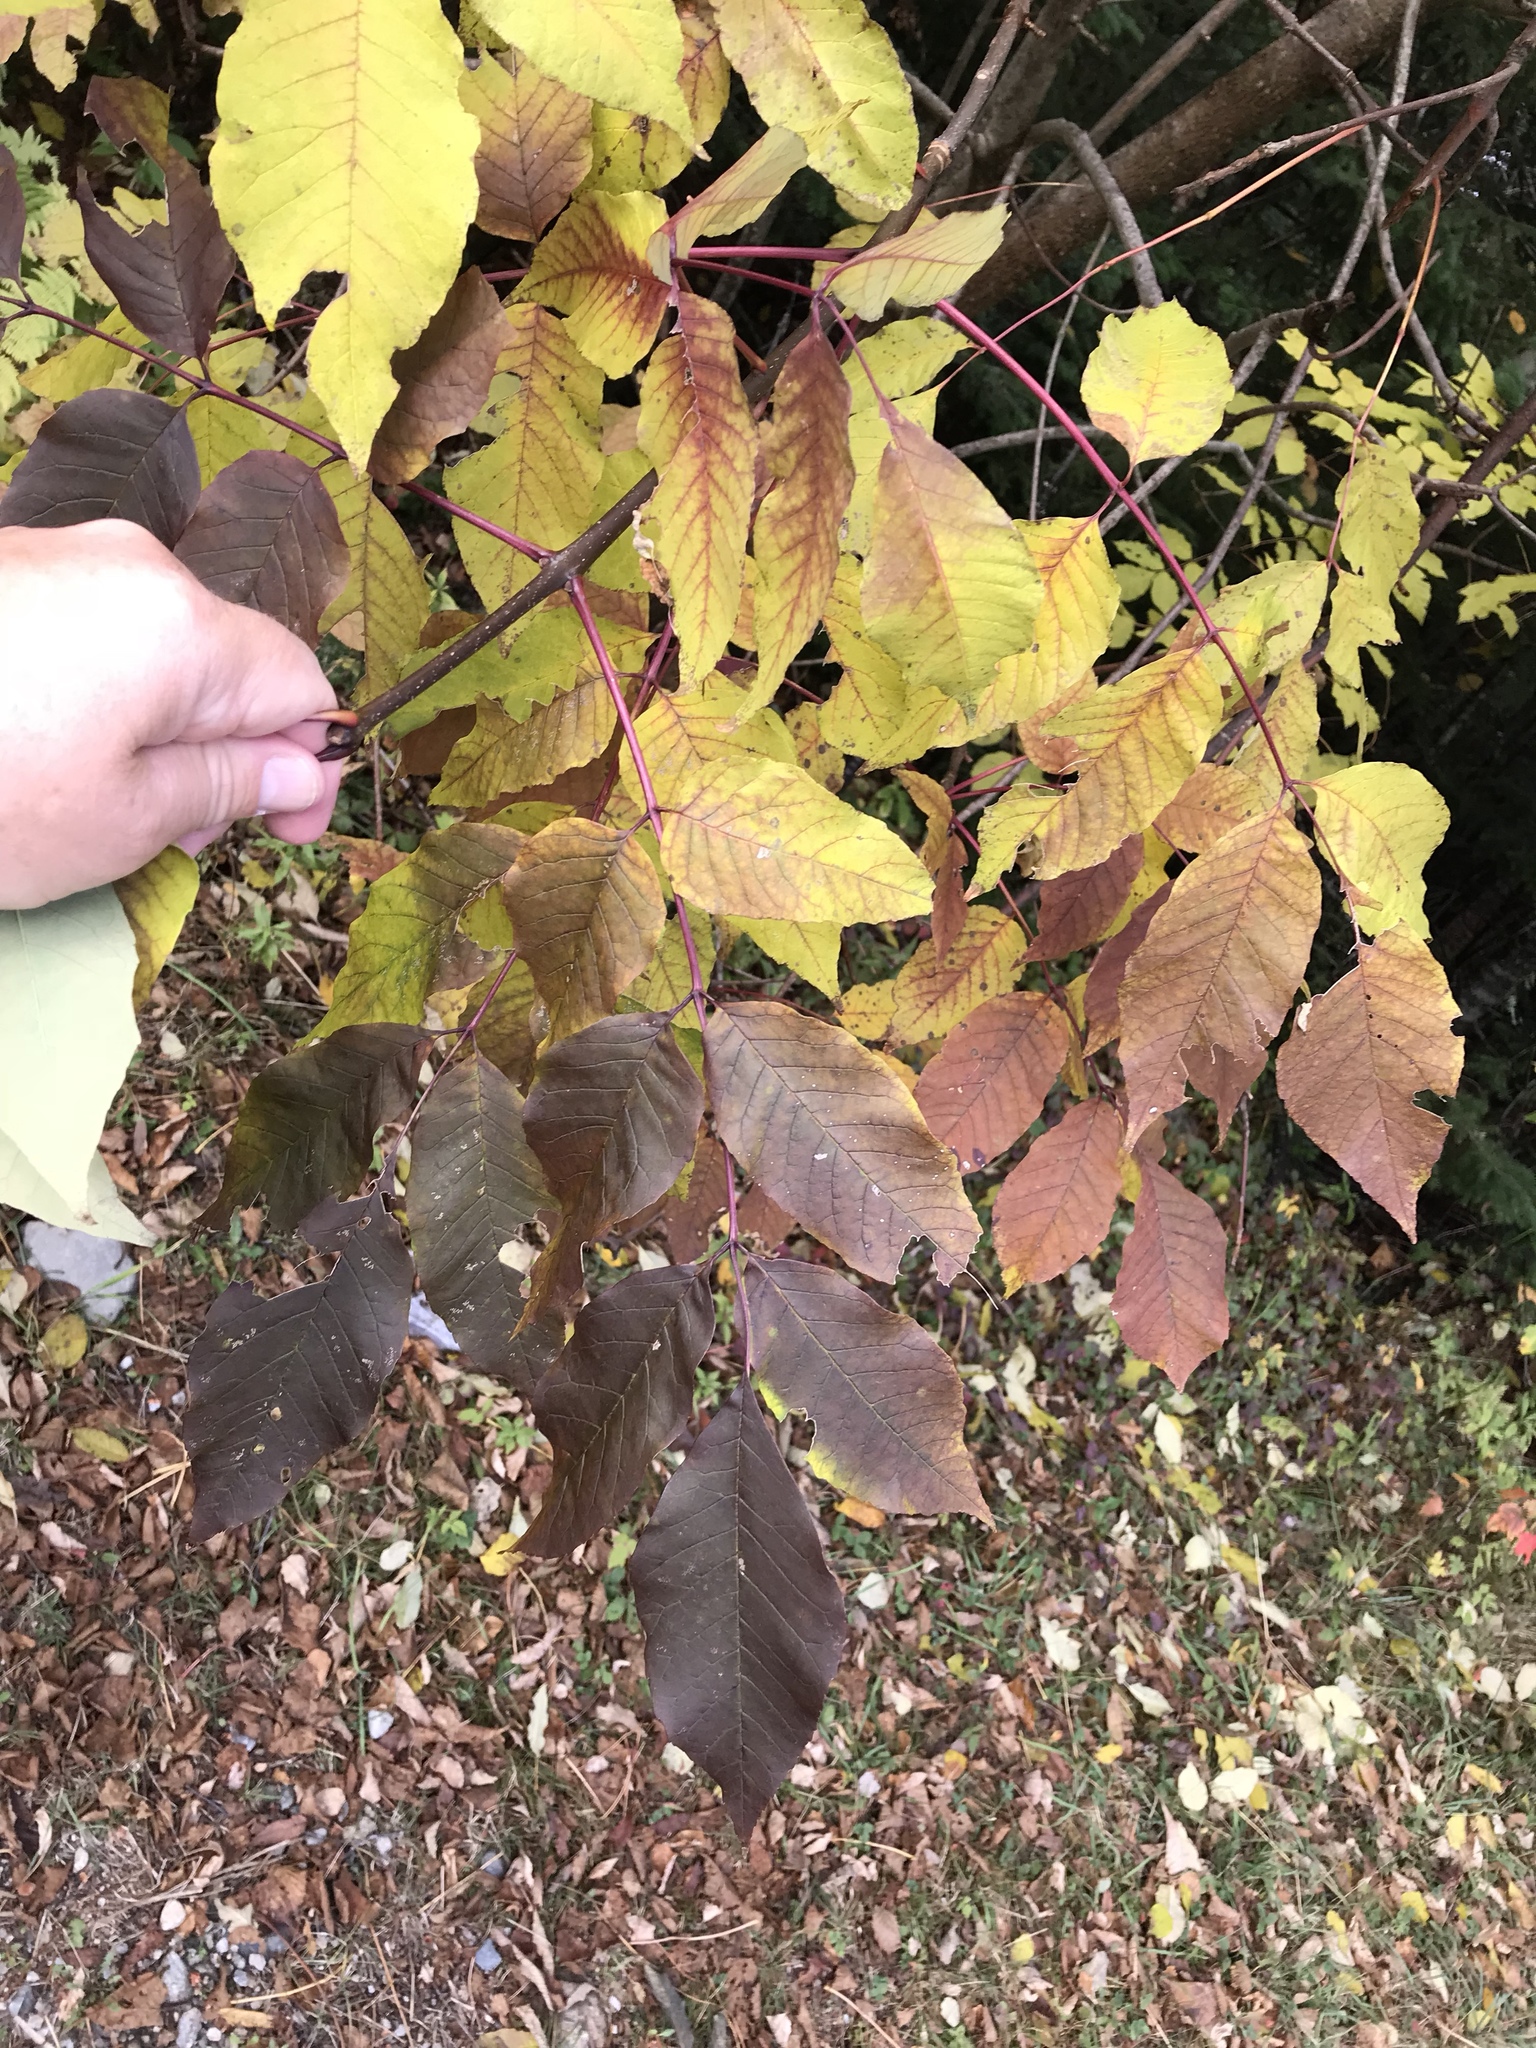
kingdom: Plantae
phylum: Tracheophyta
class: Magnoliopsida
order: Lamiales
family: Oleaceae
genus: Fraxinus
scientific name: Fraxinus americana
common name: White ash
